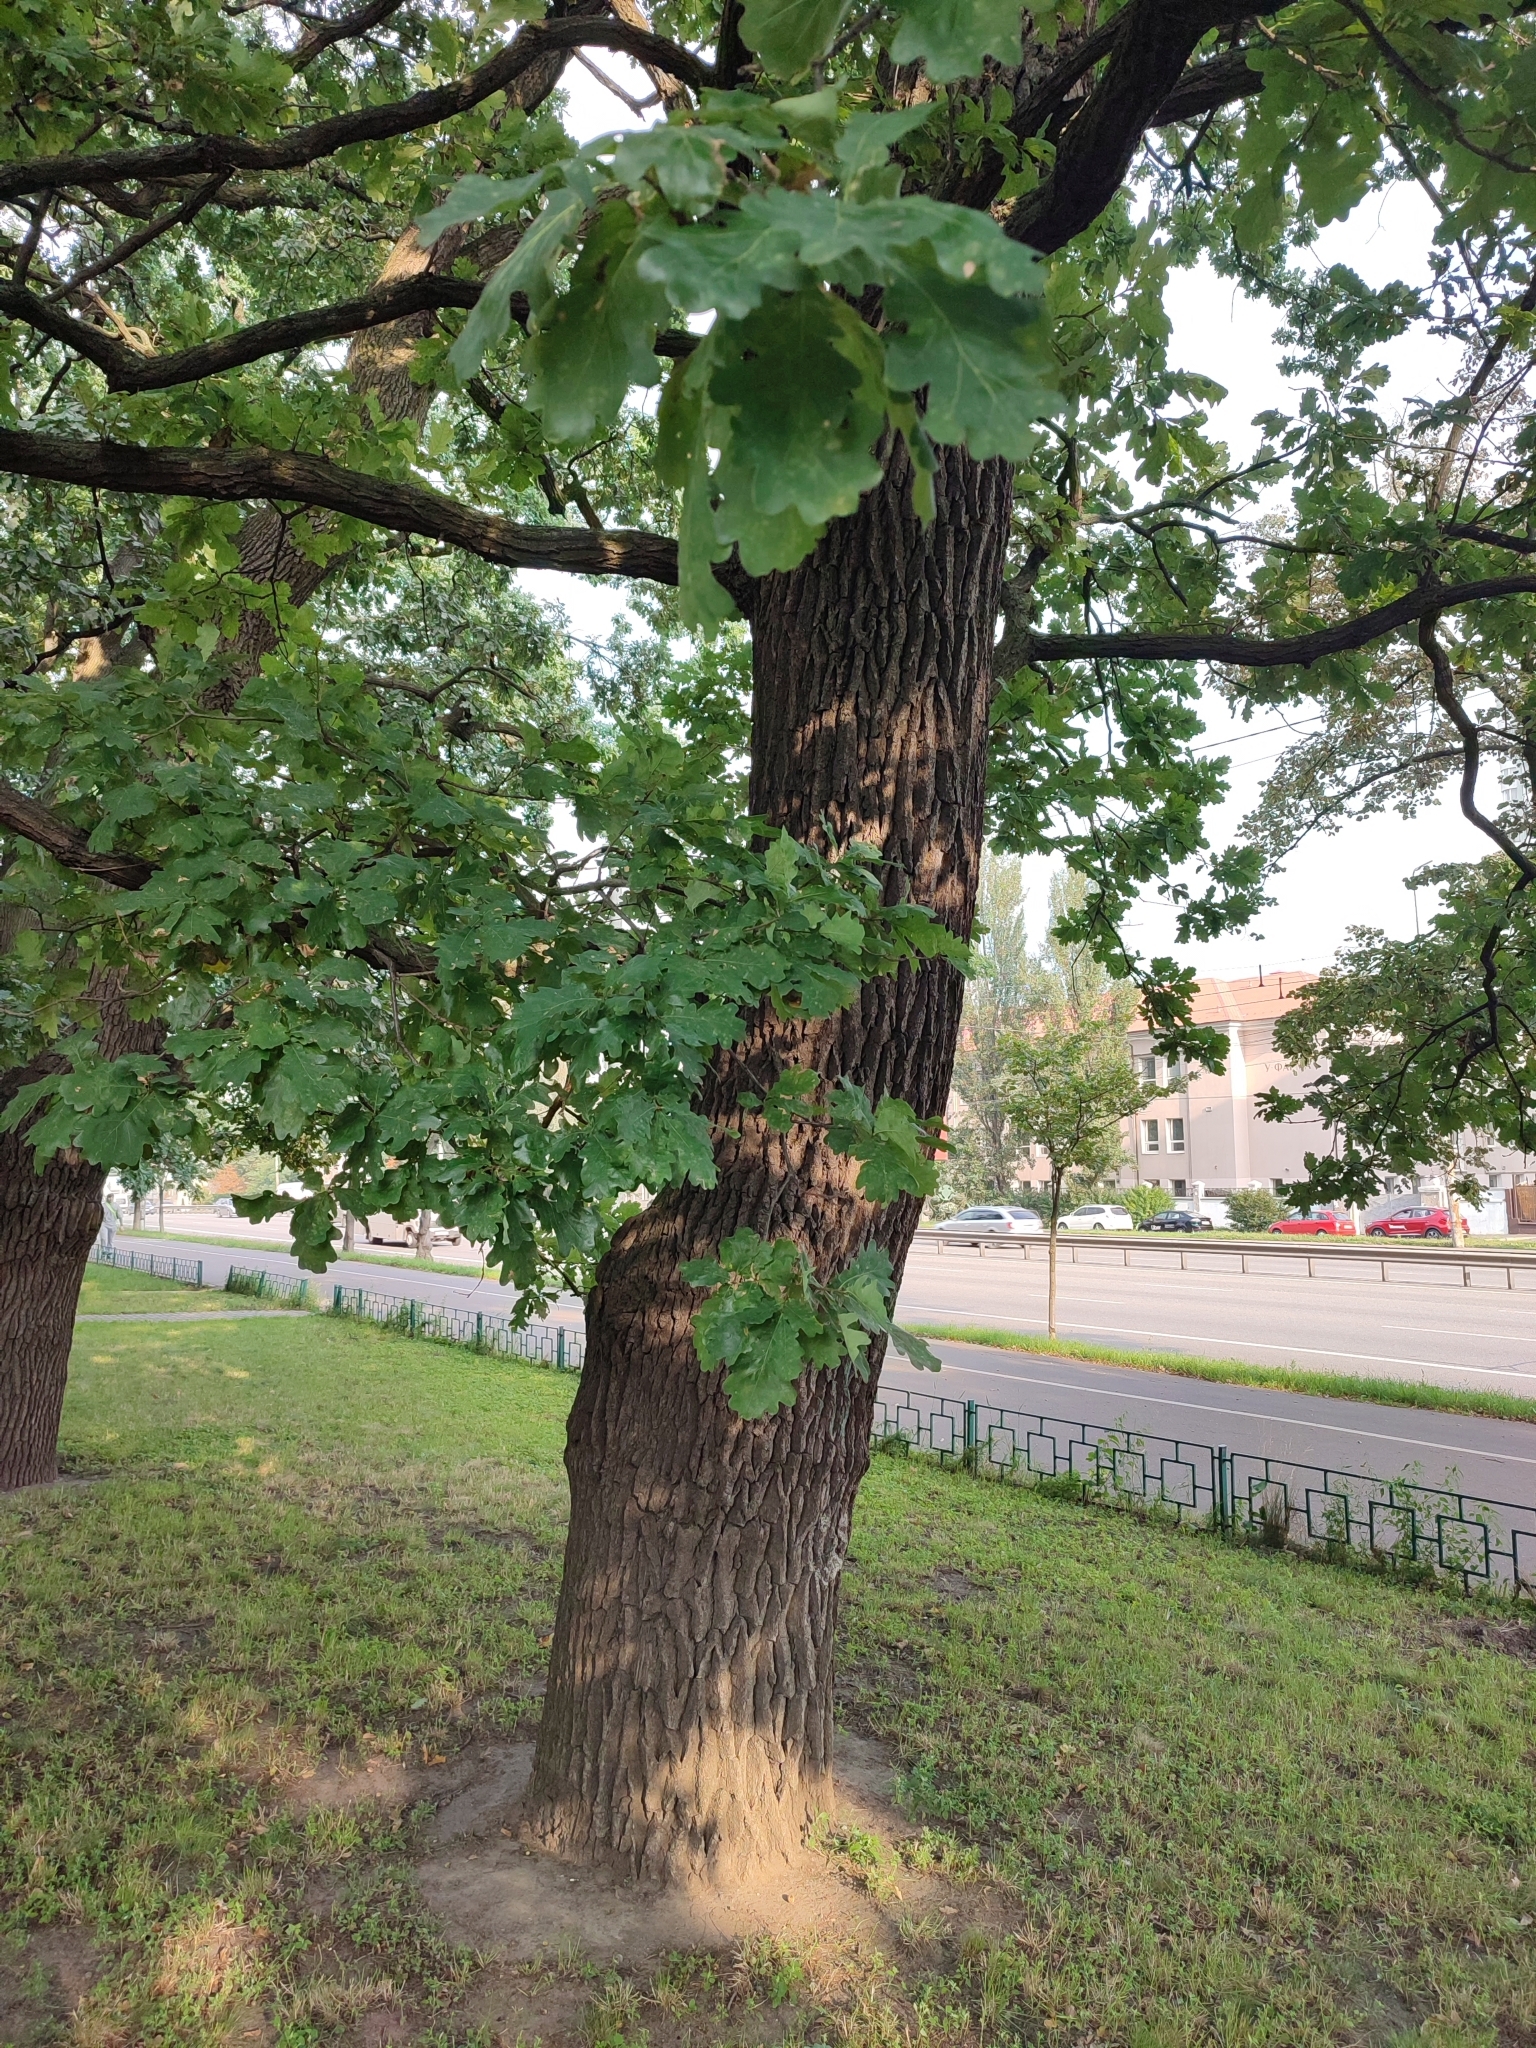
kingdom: Plantae
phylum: Tracheophyta
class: Magnoliopsida
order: Fagales
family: Fagaceae
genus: Quercus
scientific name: Quercus robur
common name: Pedunculate oak
